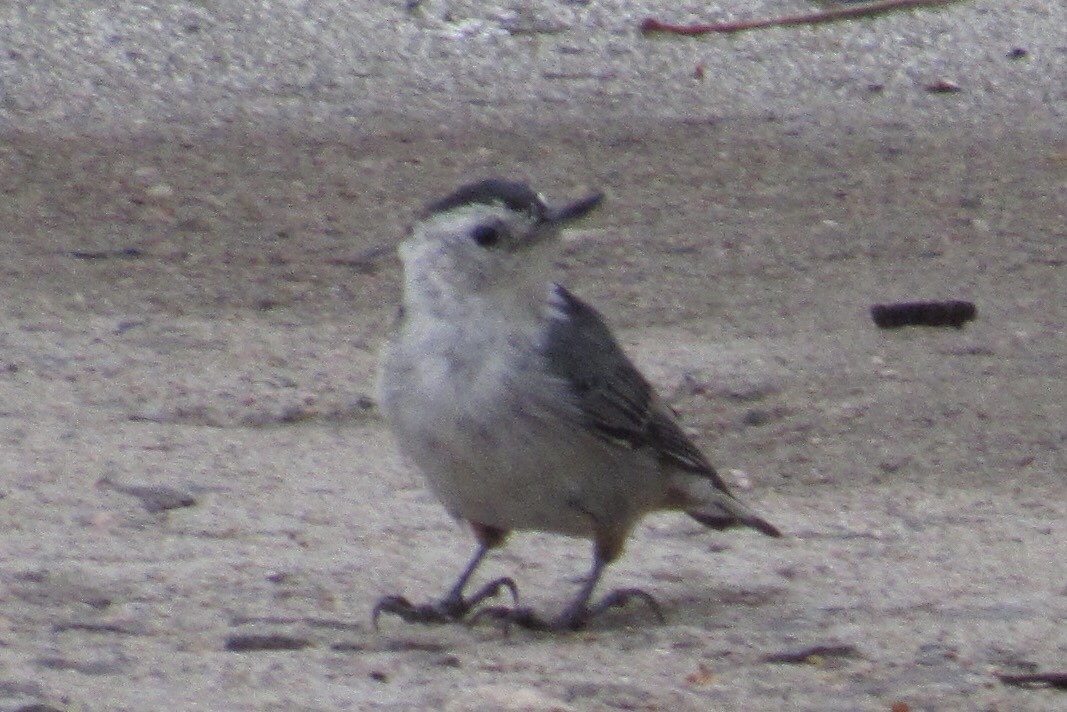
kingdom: Animalia
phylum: Chordata
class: Aves
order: Passeriformes
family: Sittidae
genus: Sitta
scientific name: Sitta carolinensis
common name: White-breasted nuthatch
